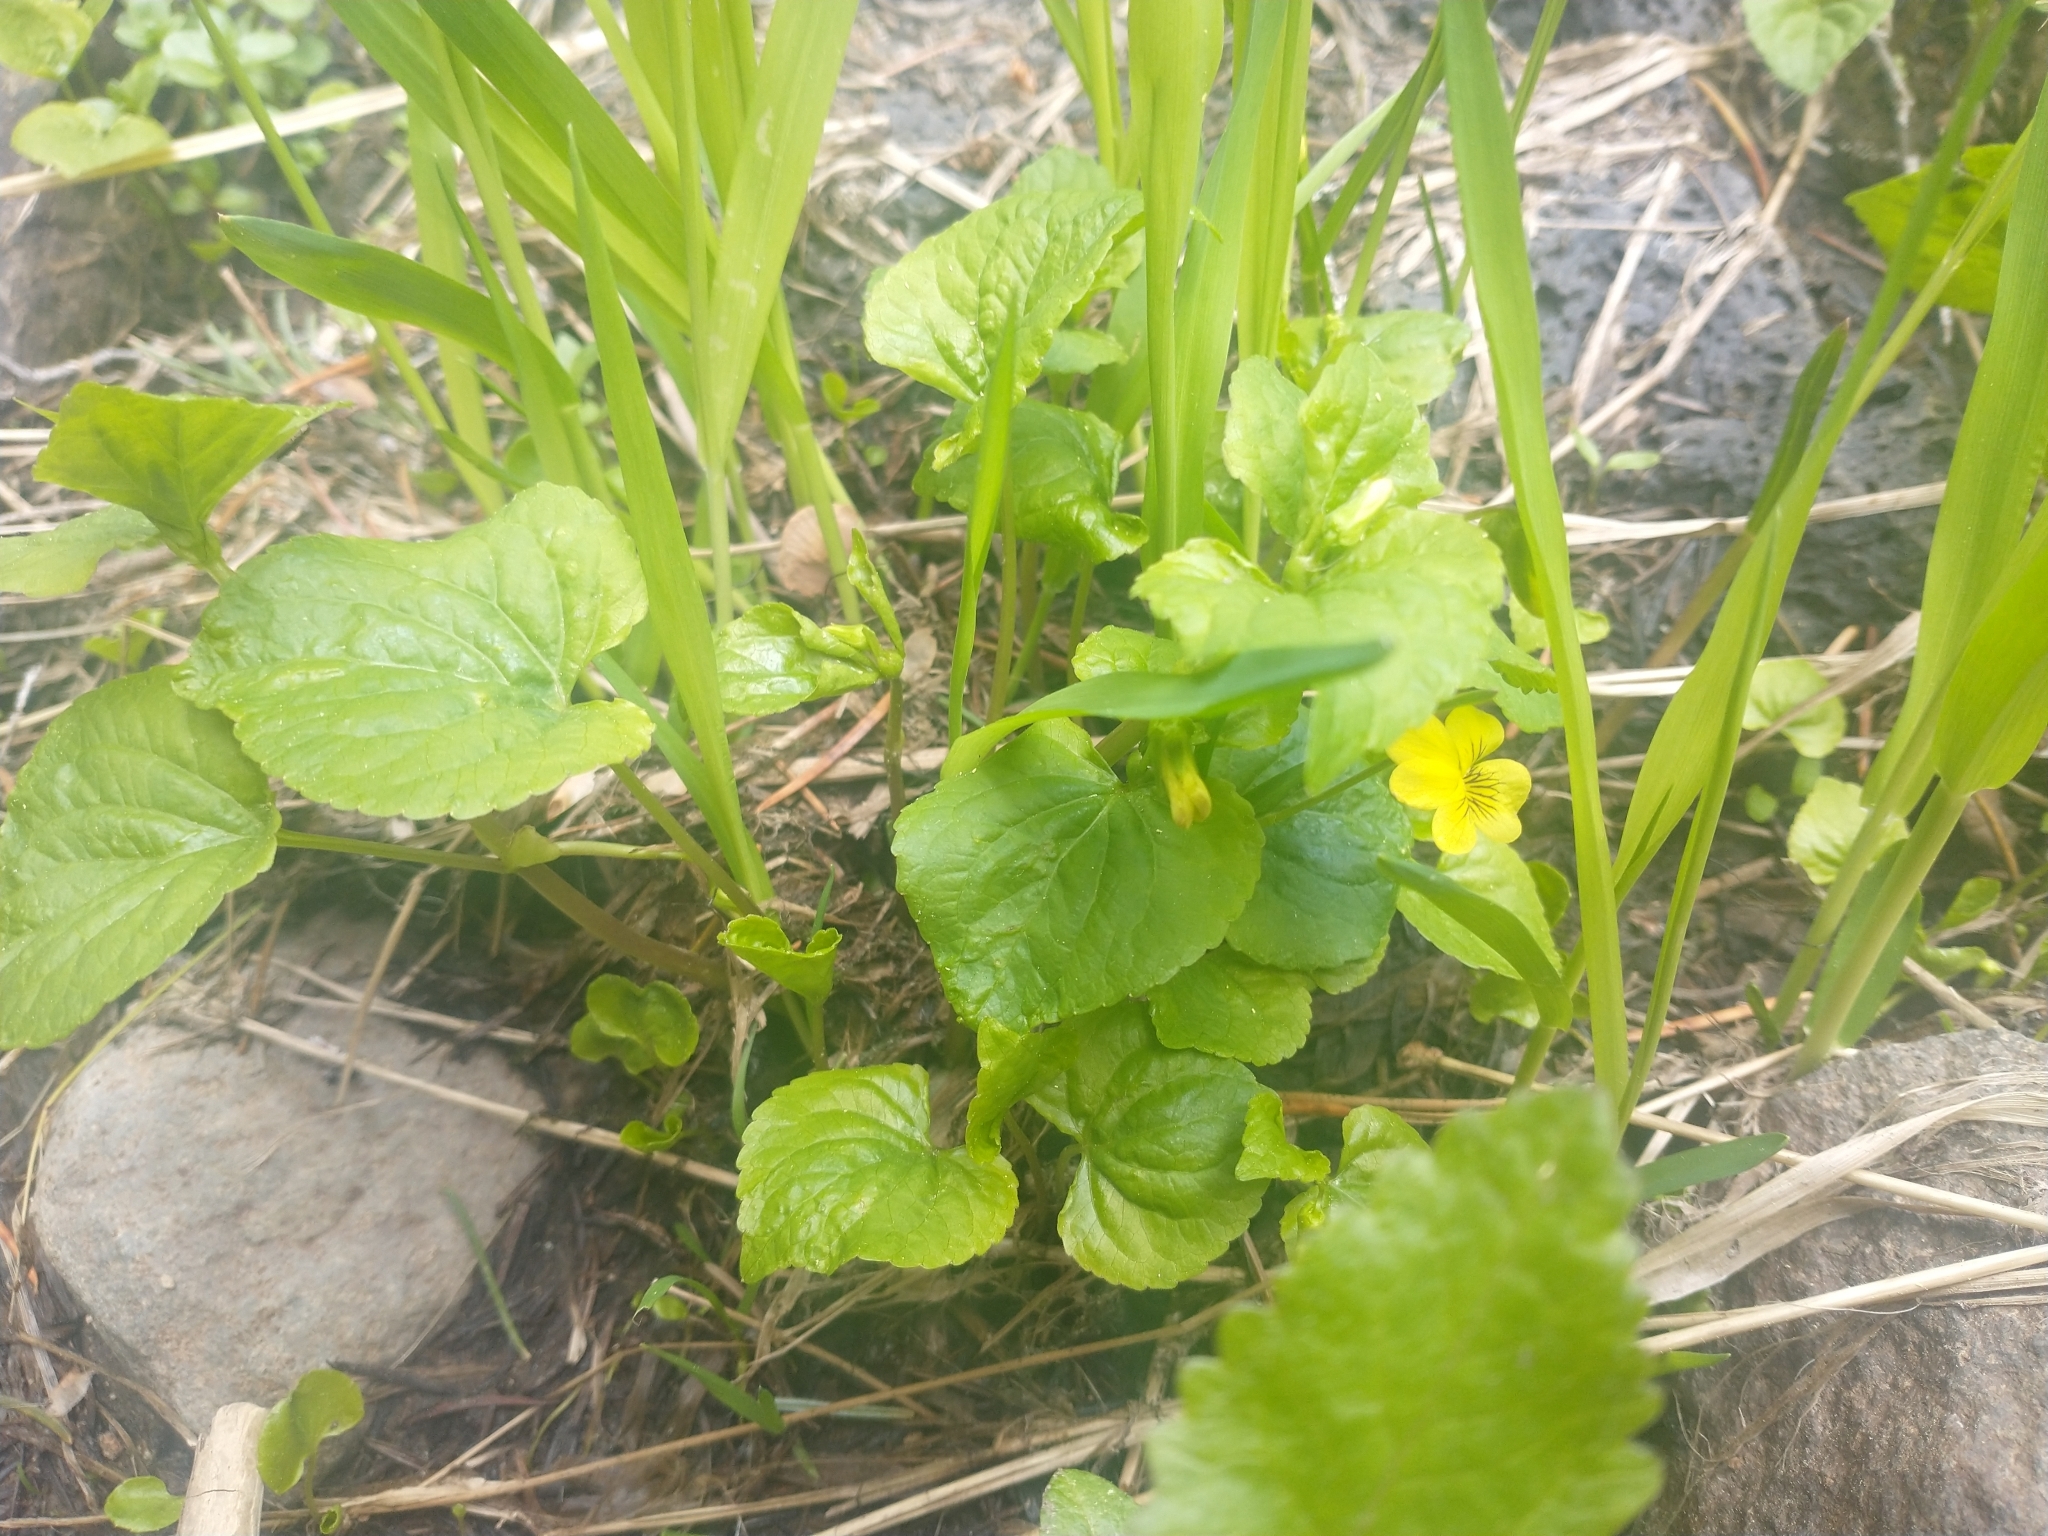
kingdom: Plantae
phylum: Tracheophyta
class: Magnoliopsida
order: Malpighiales
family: Violaceae
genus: Viola
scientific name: Viola glabella
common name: Stream violet
